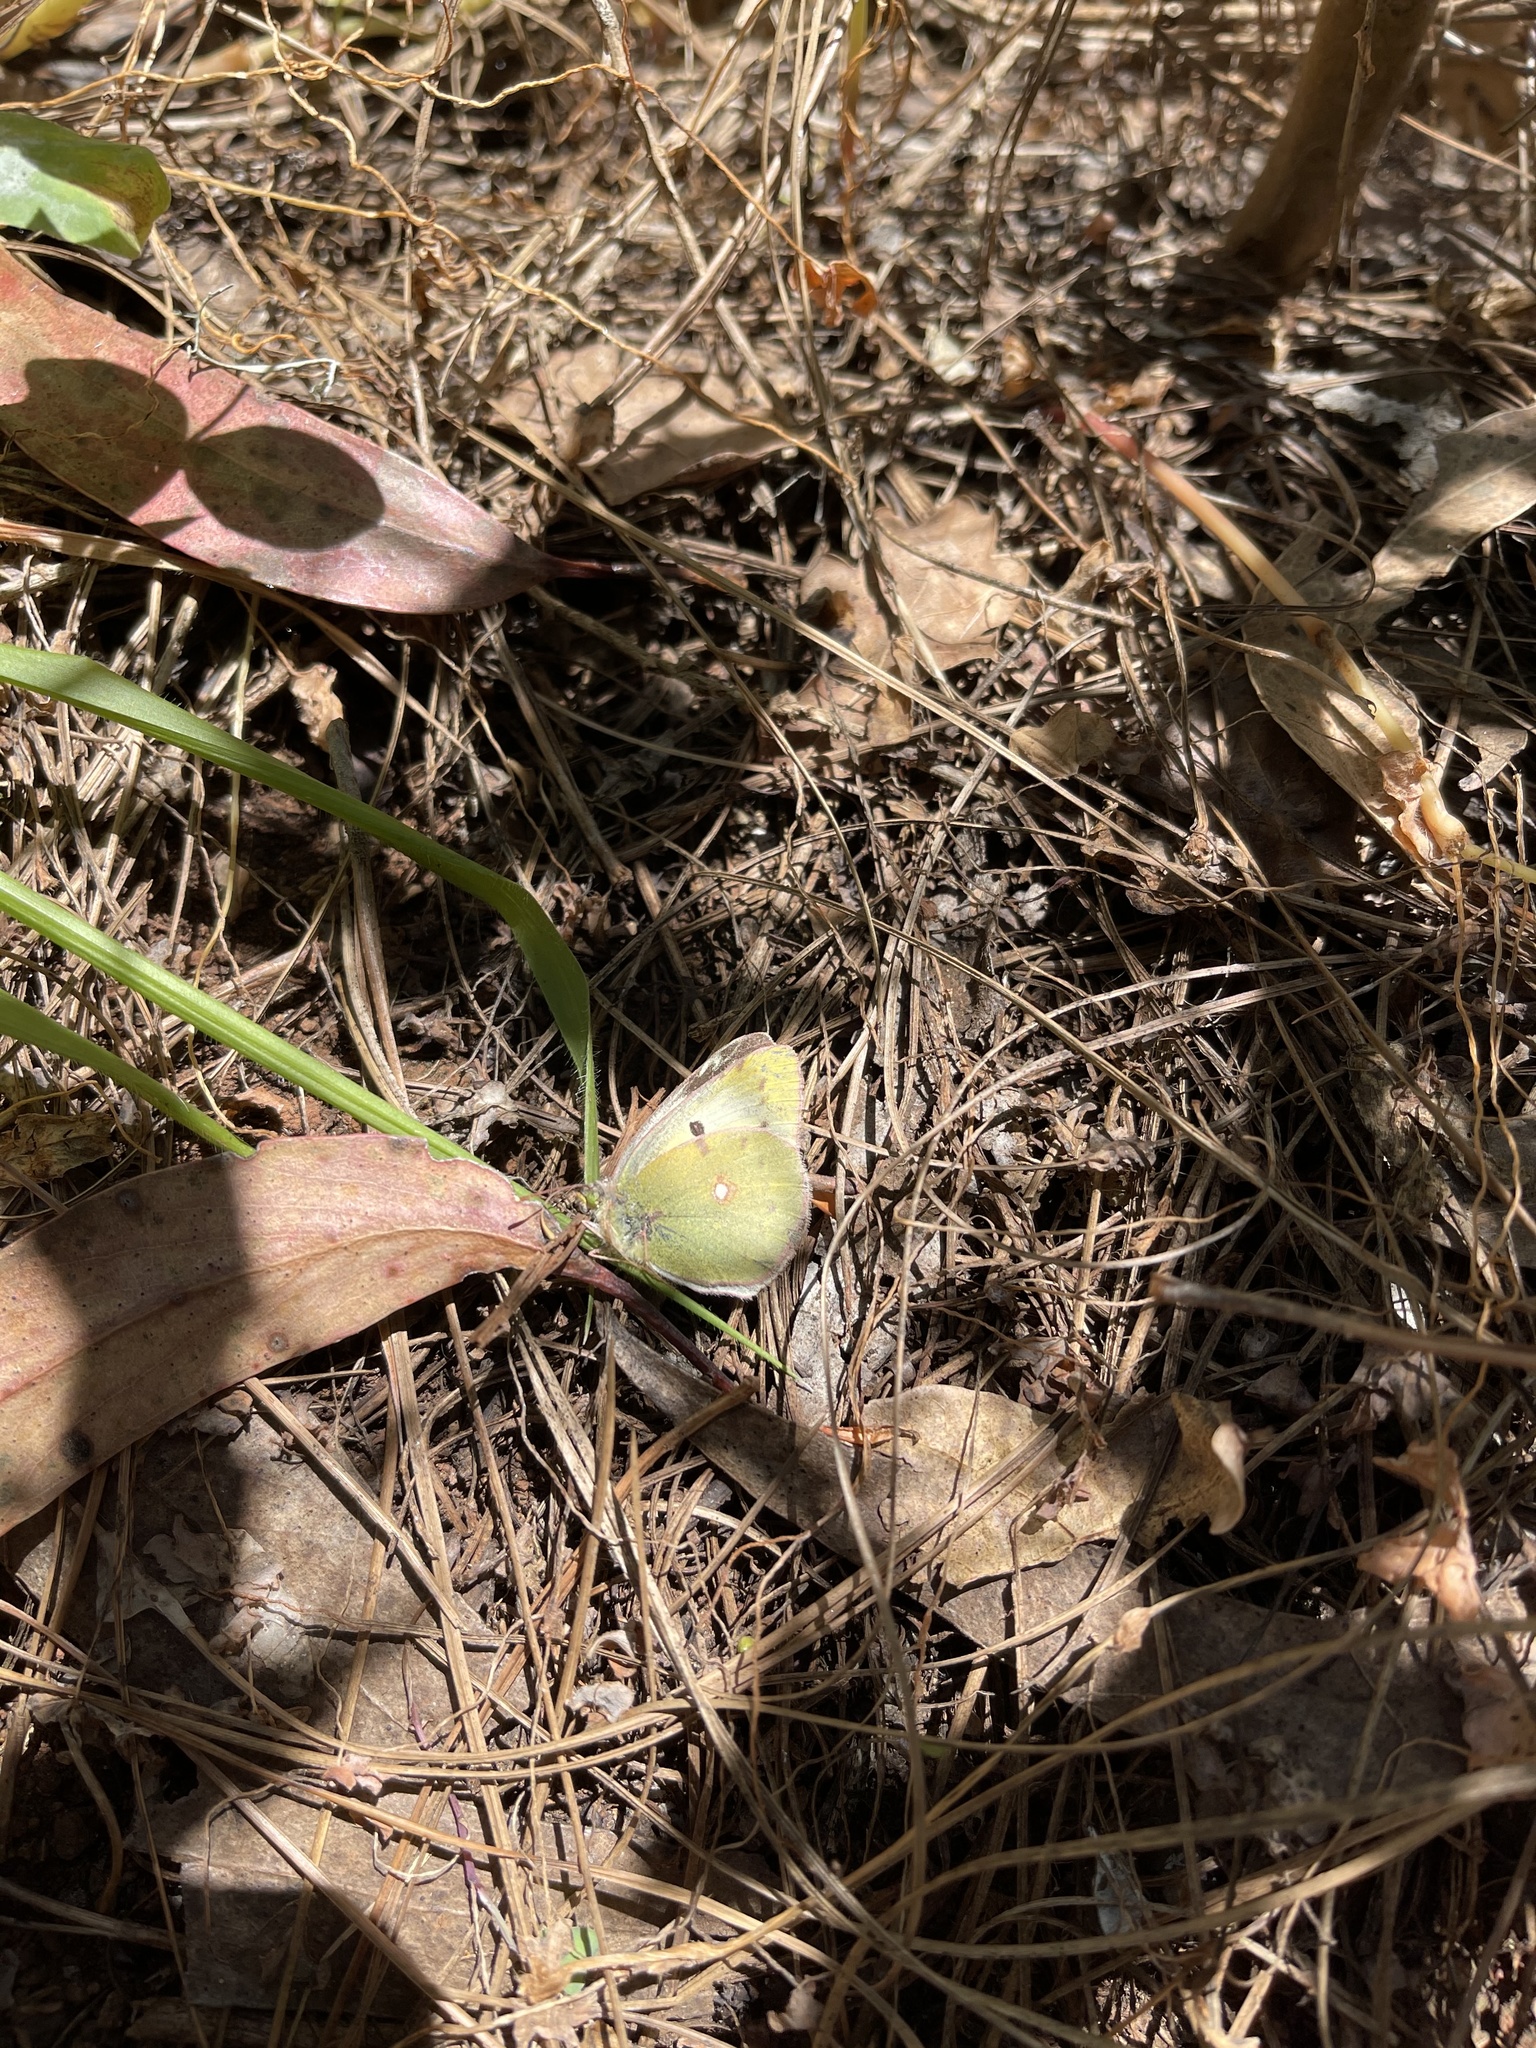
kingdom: Animalia
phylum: Arthropoda
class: Insecta
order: Lepidoptera
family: Pieridae
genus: Colias
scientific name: Colias croceus
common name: Clouded yellow
